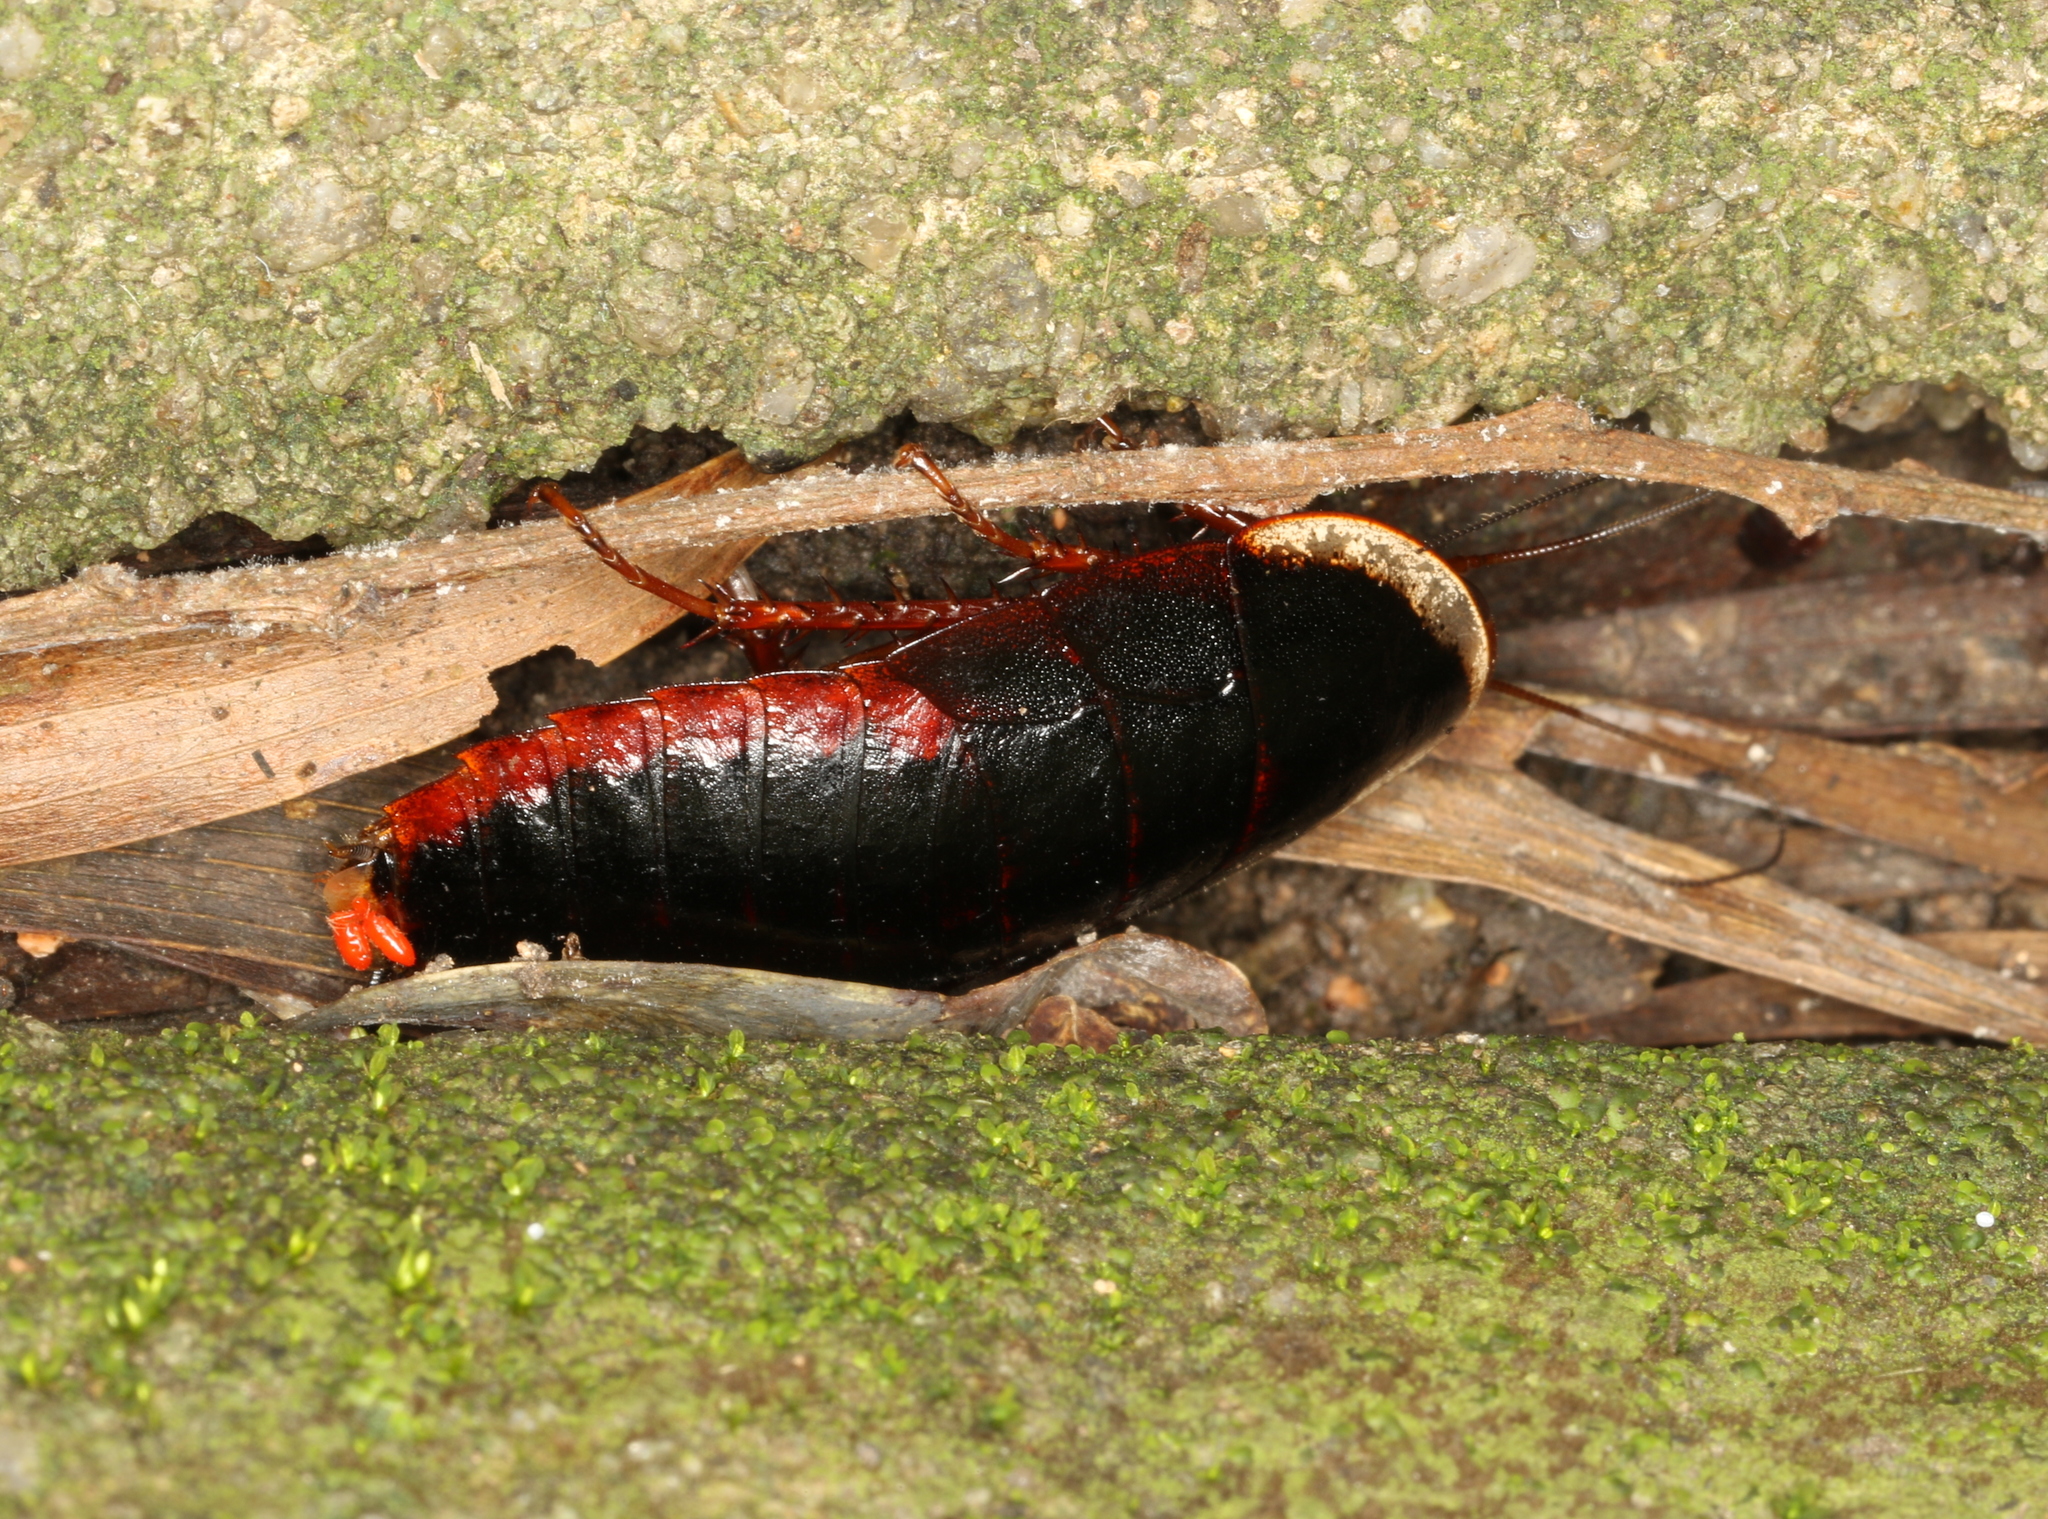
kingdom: Animalia
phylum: Arthropoda
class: Insecta
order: Blattodea
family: Blaberidae
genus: Opisthoplatia
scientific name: Opisthoplatia orientalis
